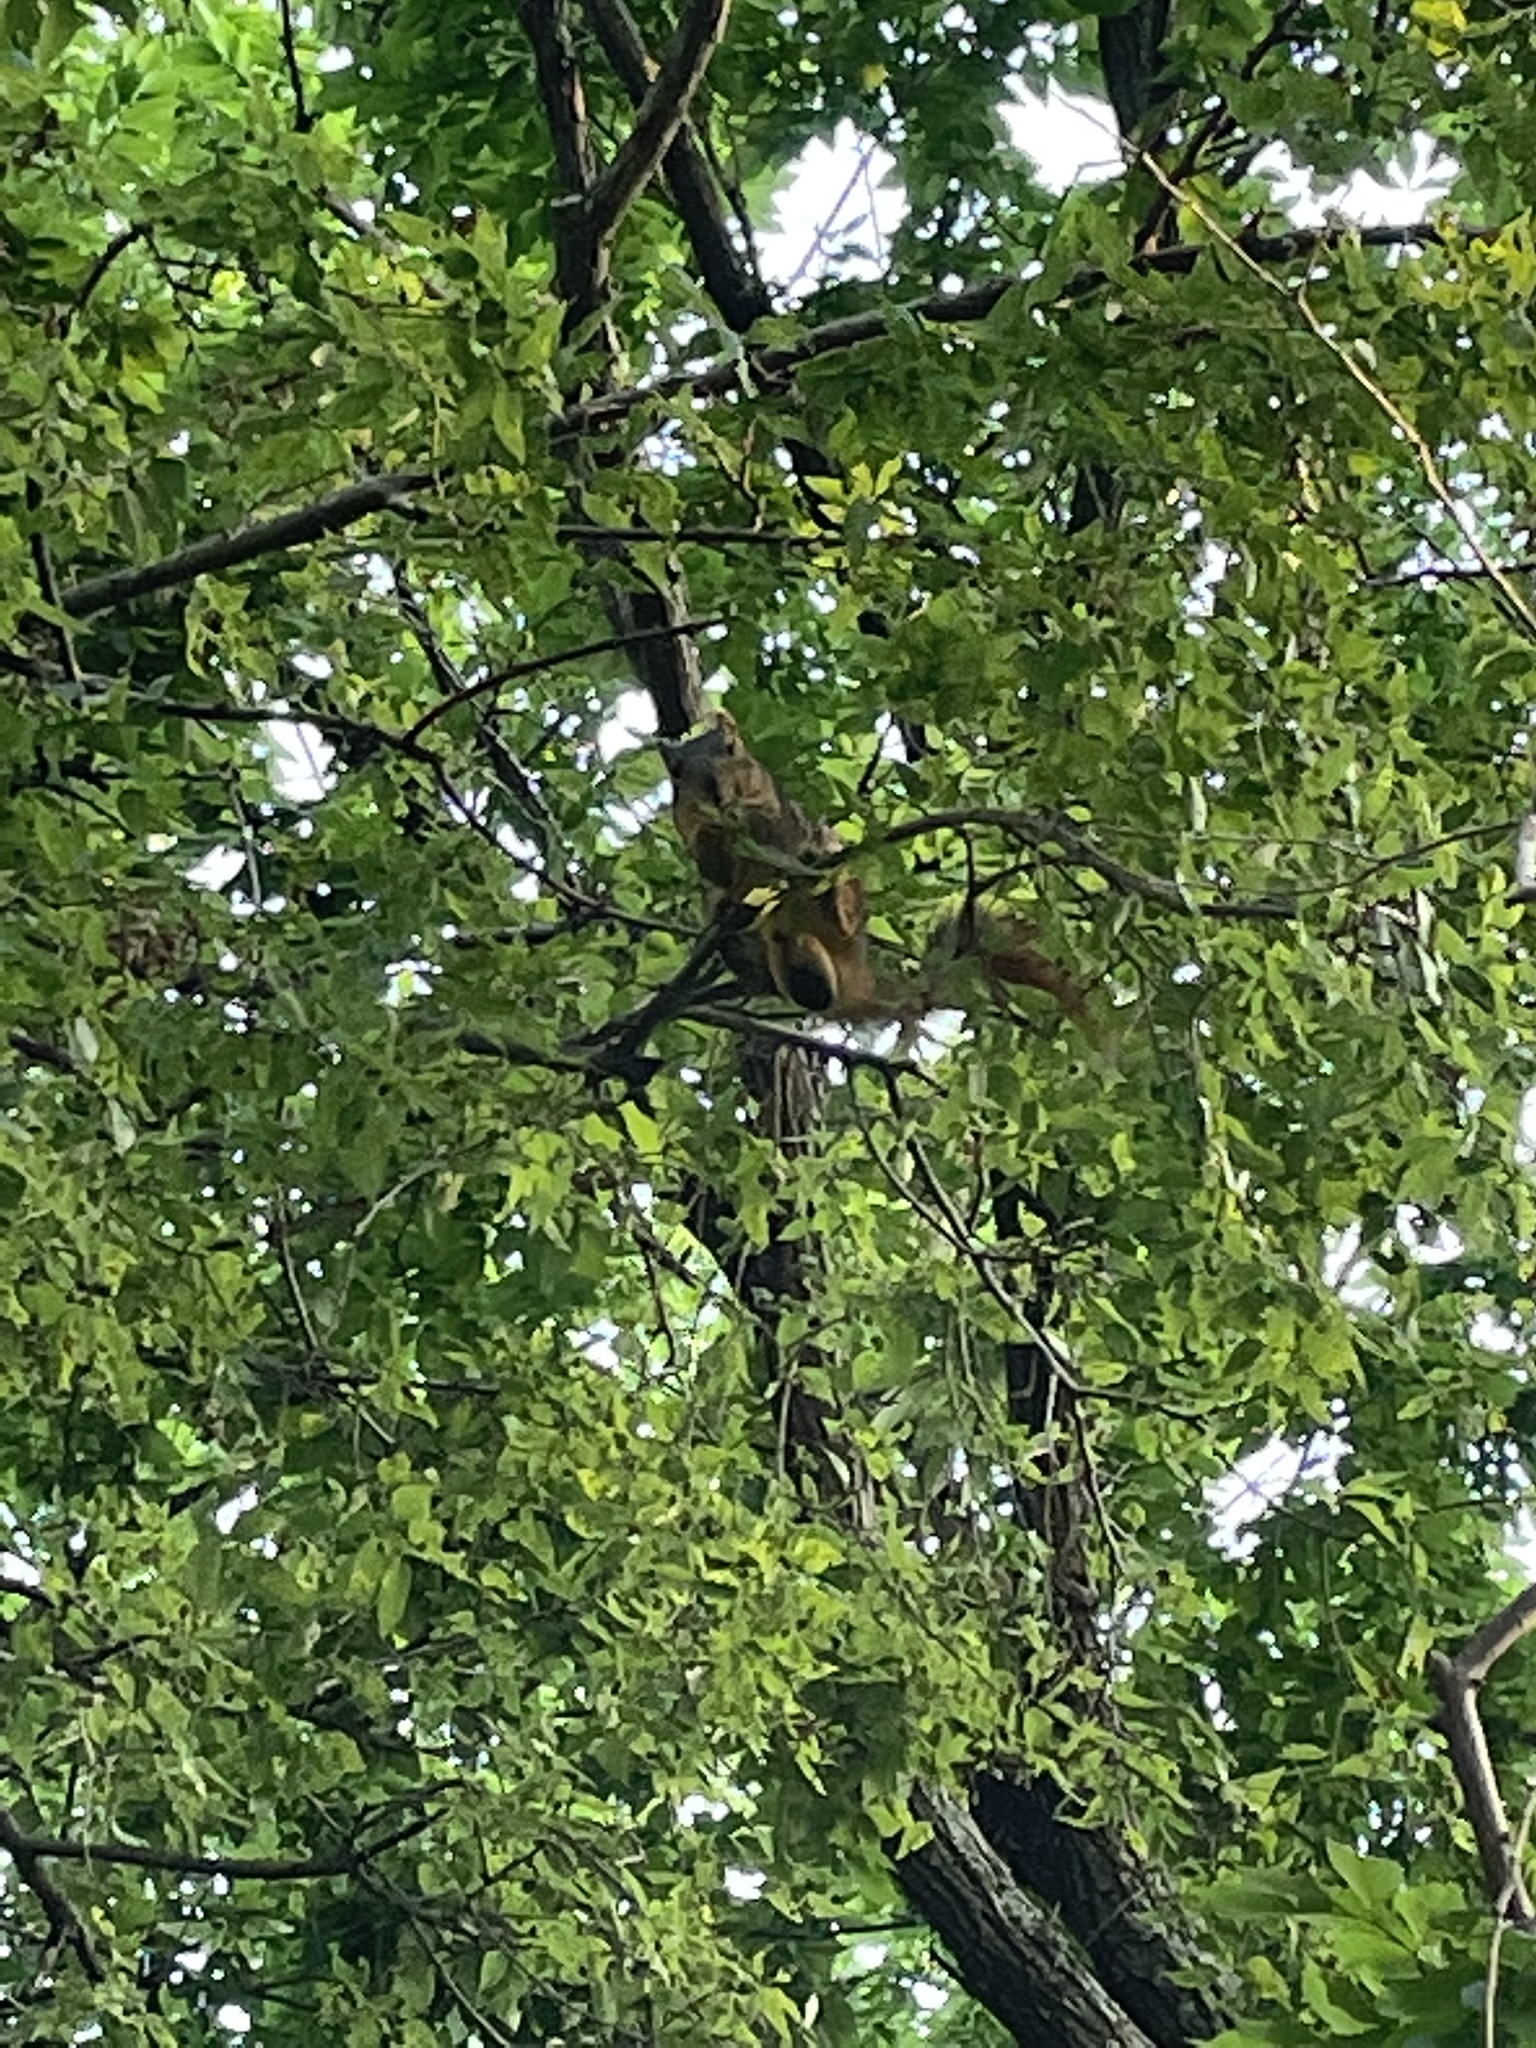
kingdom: Animalia
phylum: Chordata
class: Mammalia
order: Rodentia
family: Sciuridae
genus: Sciurus
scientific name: Sciurus niger
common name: Fox squirrel
